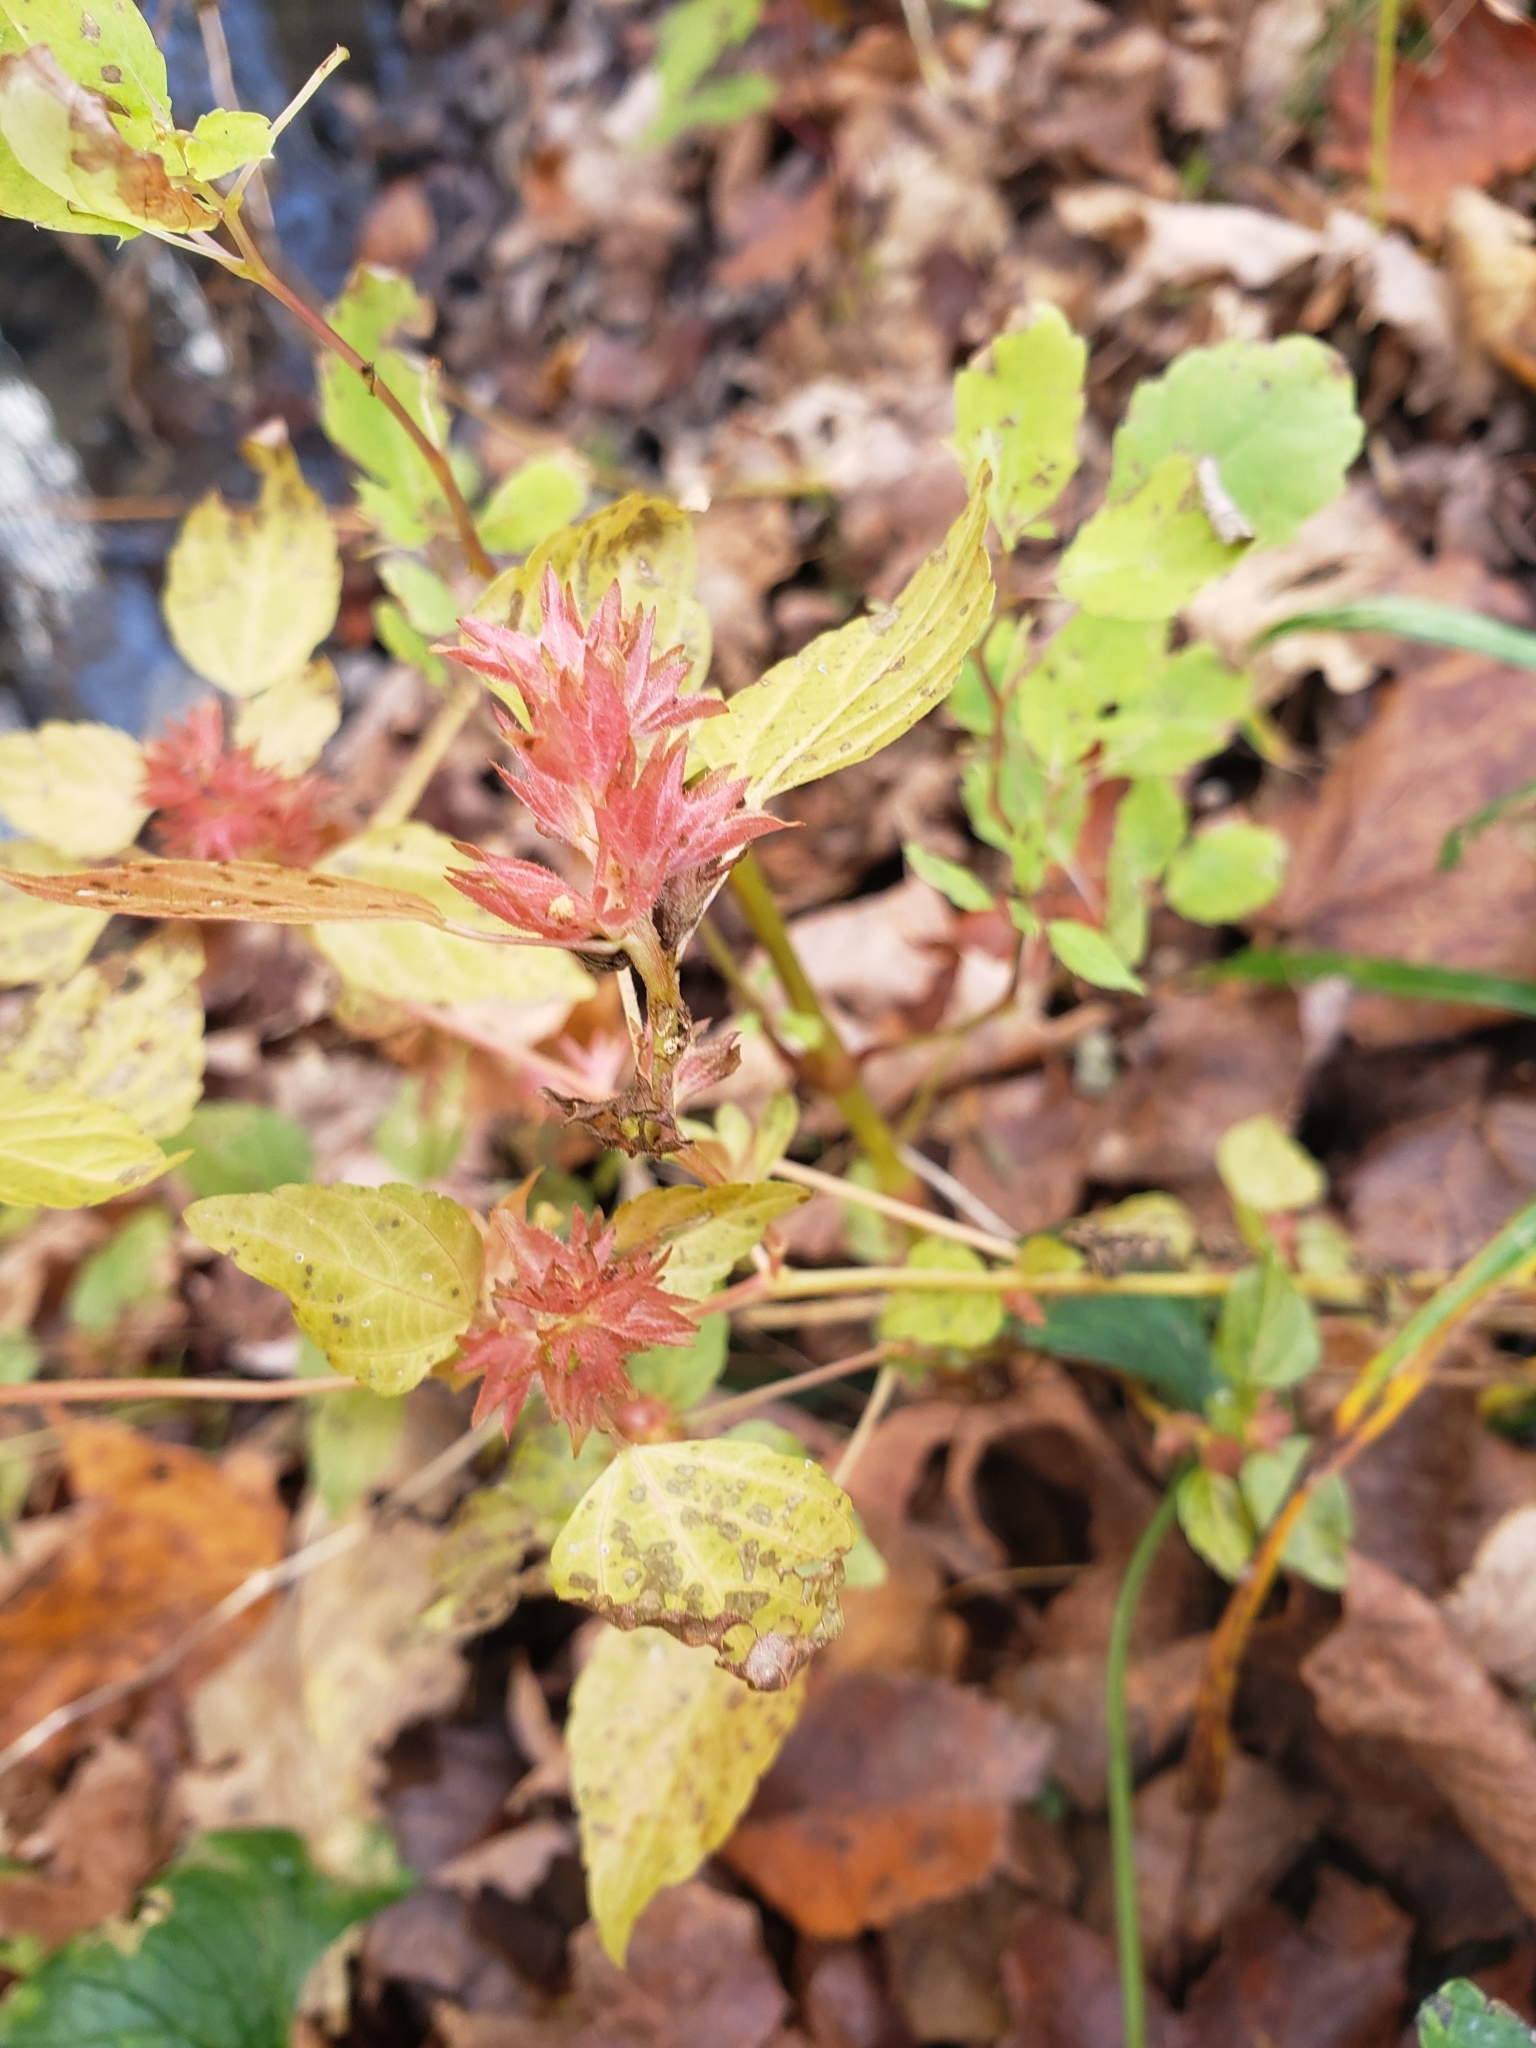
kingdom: Plantae
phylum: Tracheophyta
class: Magnoliopsida
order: Malpighiales
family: Euphorbiaceae
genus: Acalypha
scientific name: Acalypha rhomboidea
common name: Rhombic copperleaf
